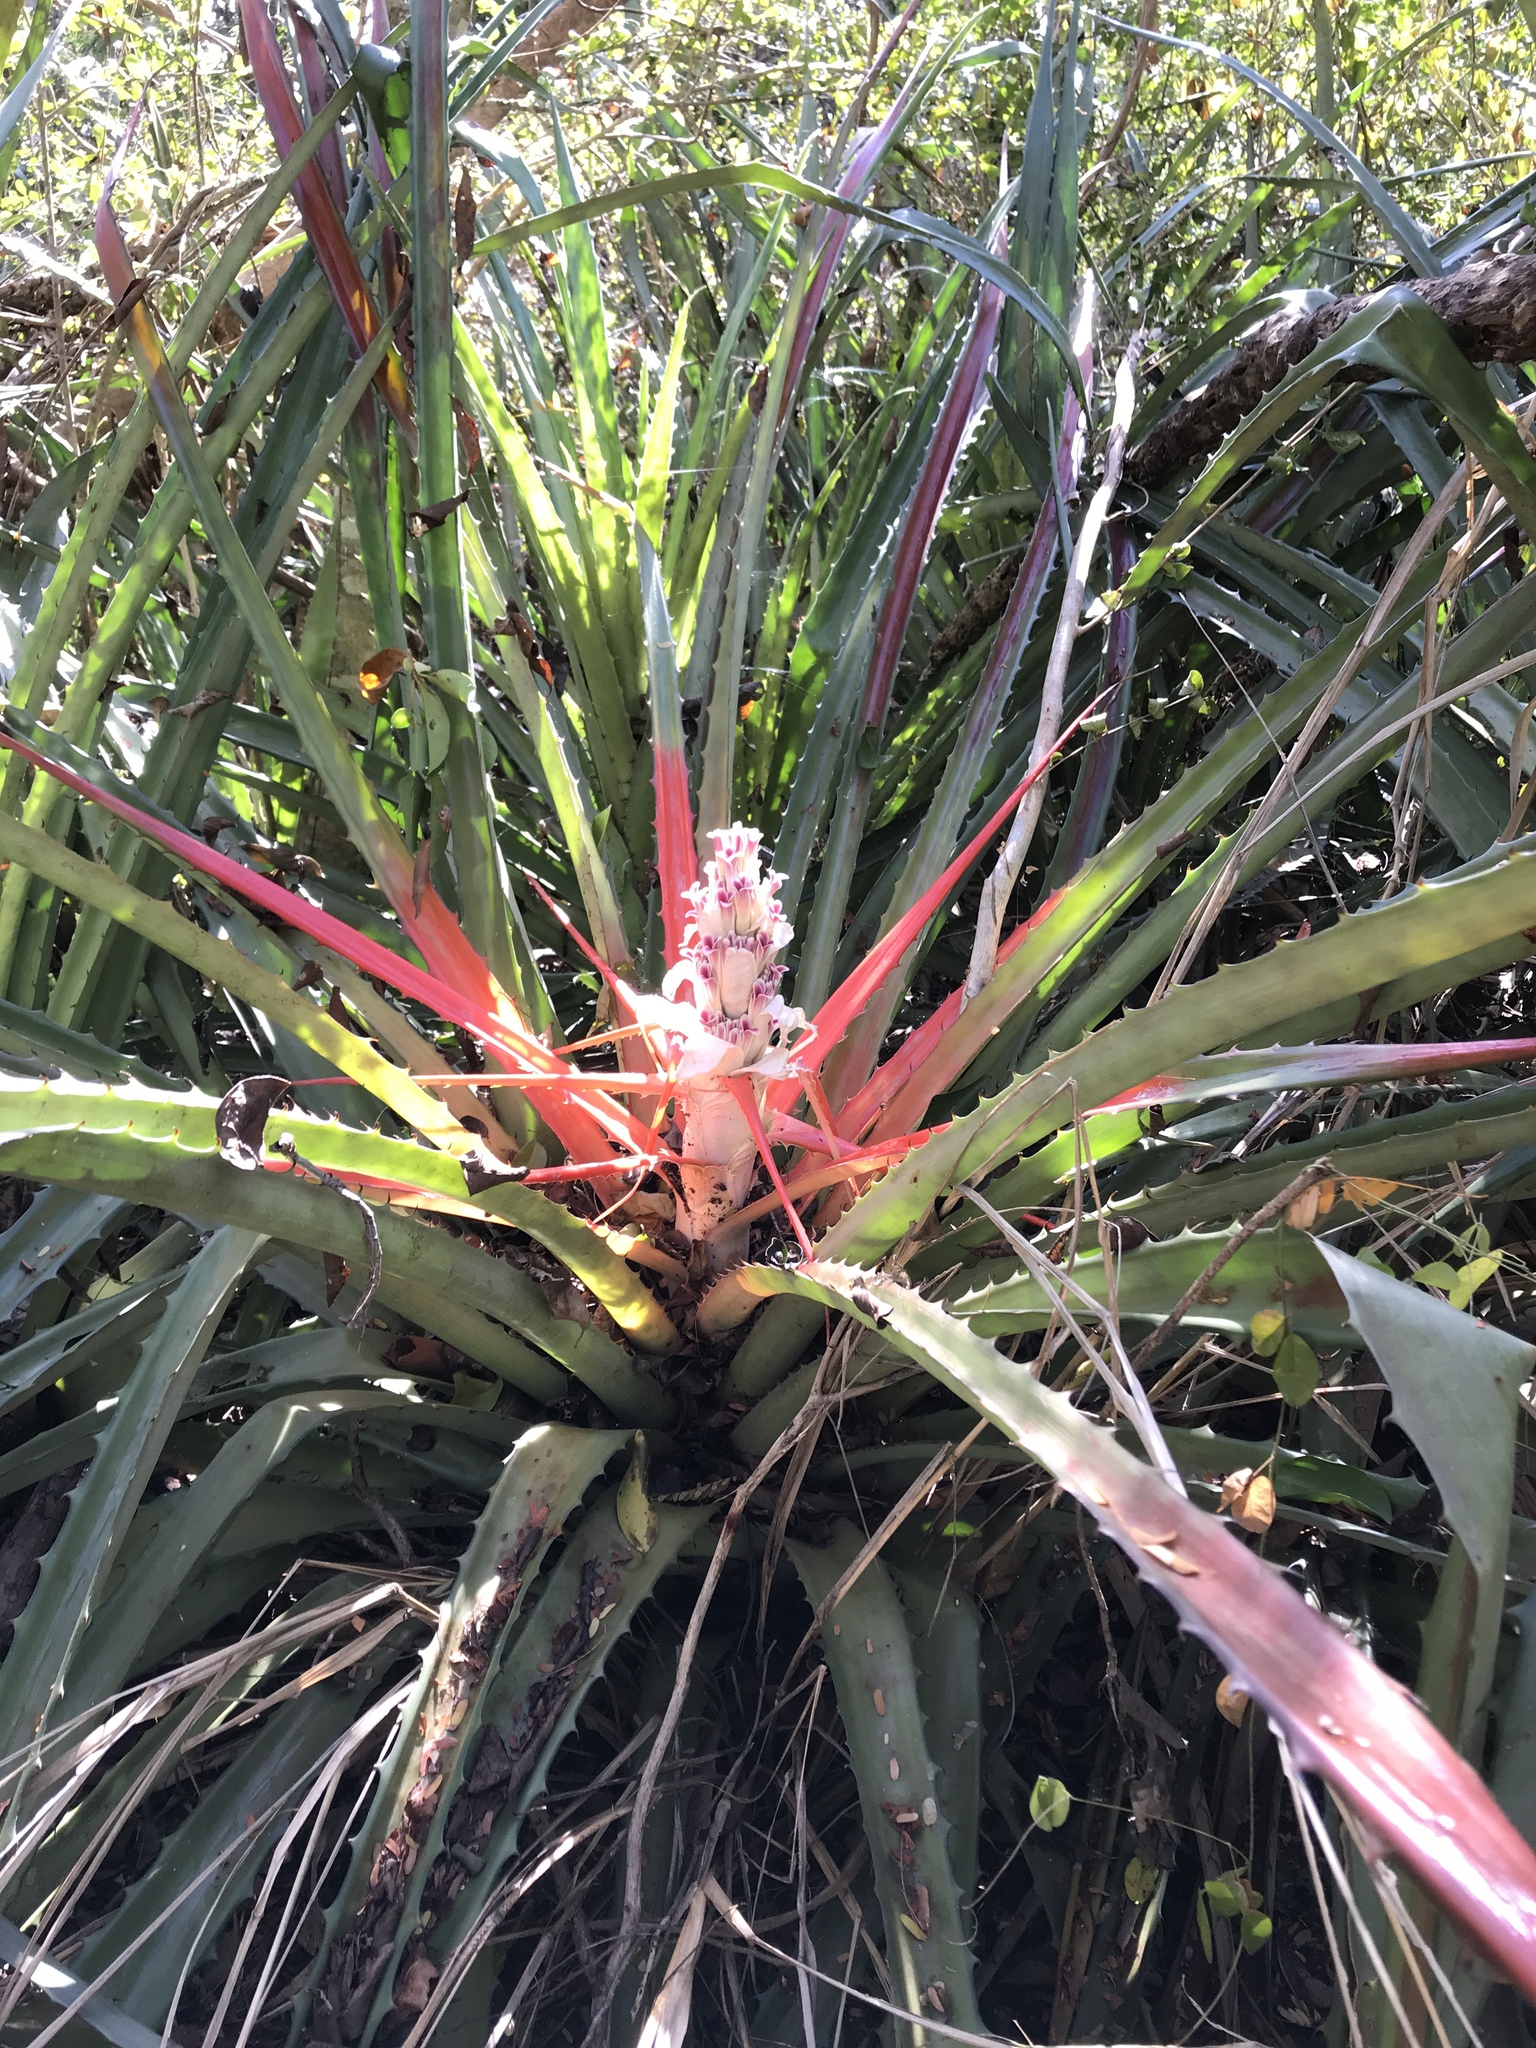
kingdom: Plantae
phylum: Tracheophyta
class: Liliopsida
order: Poales
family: Bromeliaceae
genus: Bromelia
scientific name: Bromelia pinguin
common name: Pinguin
